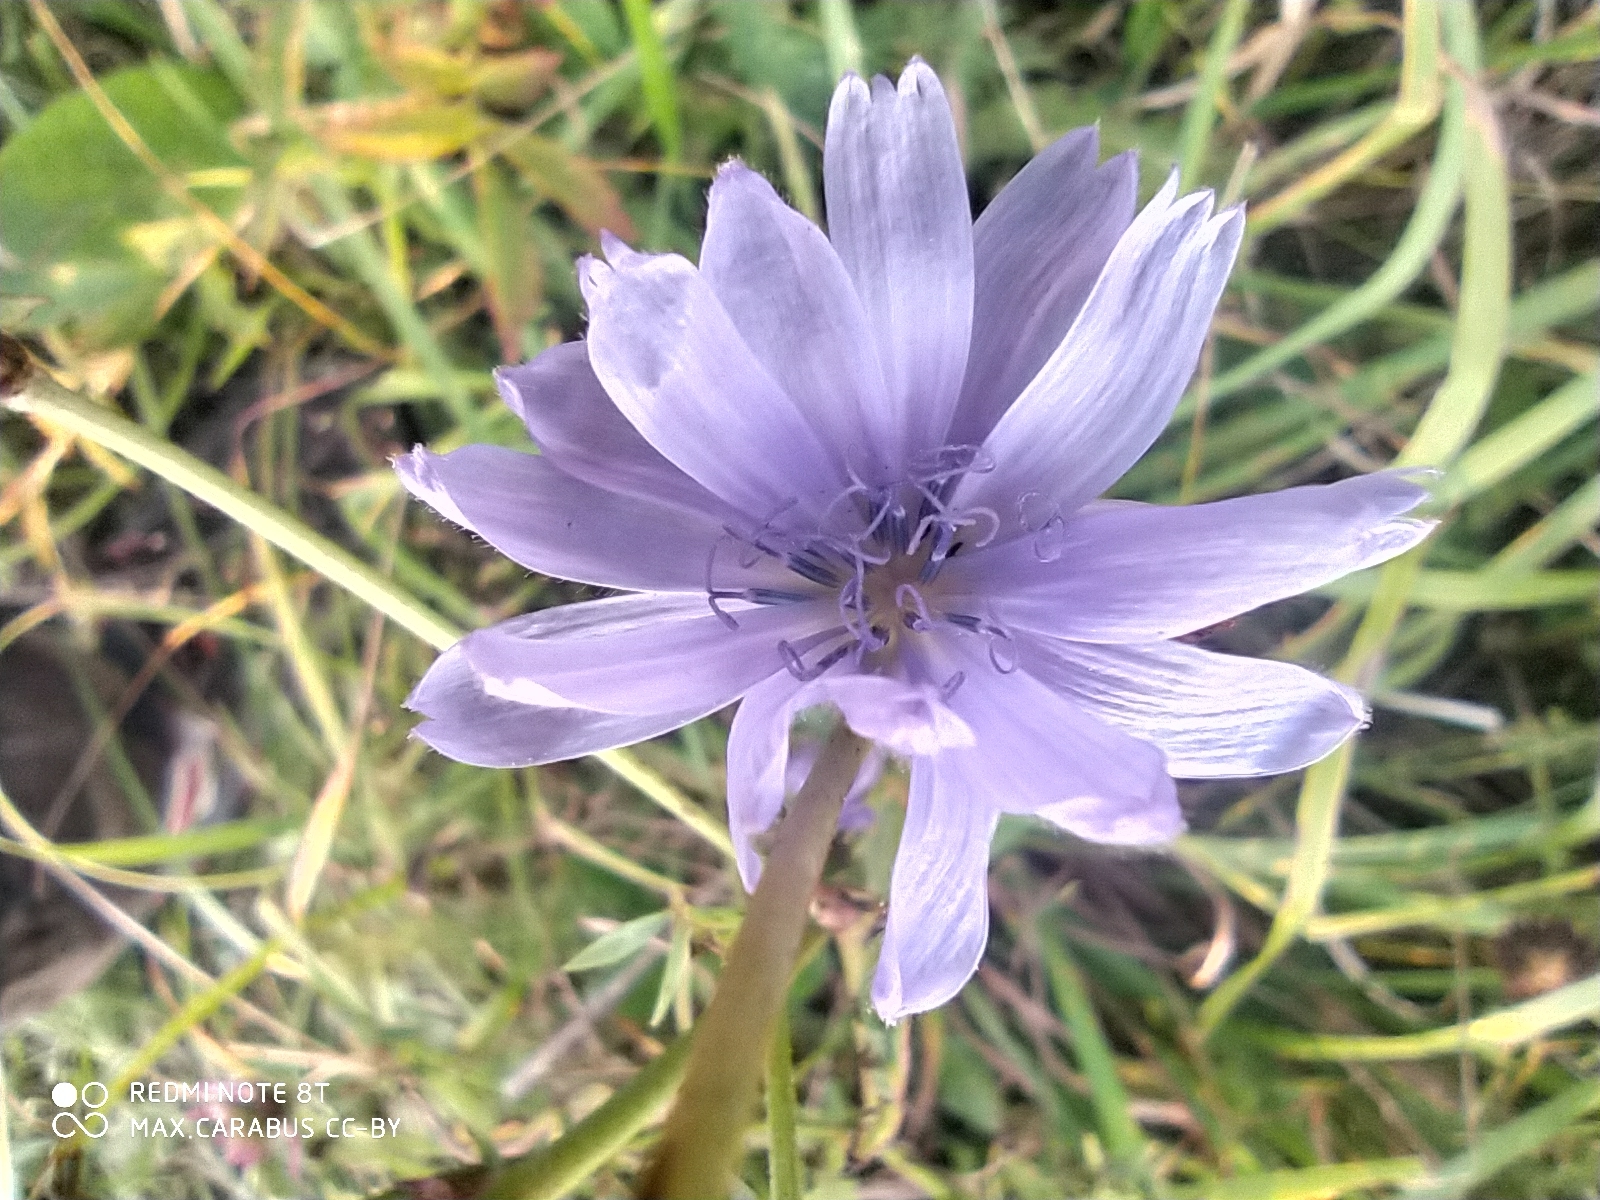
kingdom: Plantae
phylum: Tracheophyta
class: Magnoliopsida
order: Asterales
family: Asteraceae
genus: Cichorium
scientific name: Cichorium intybus
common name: Chicory
